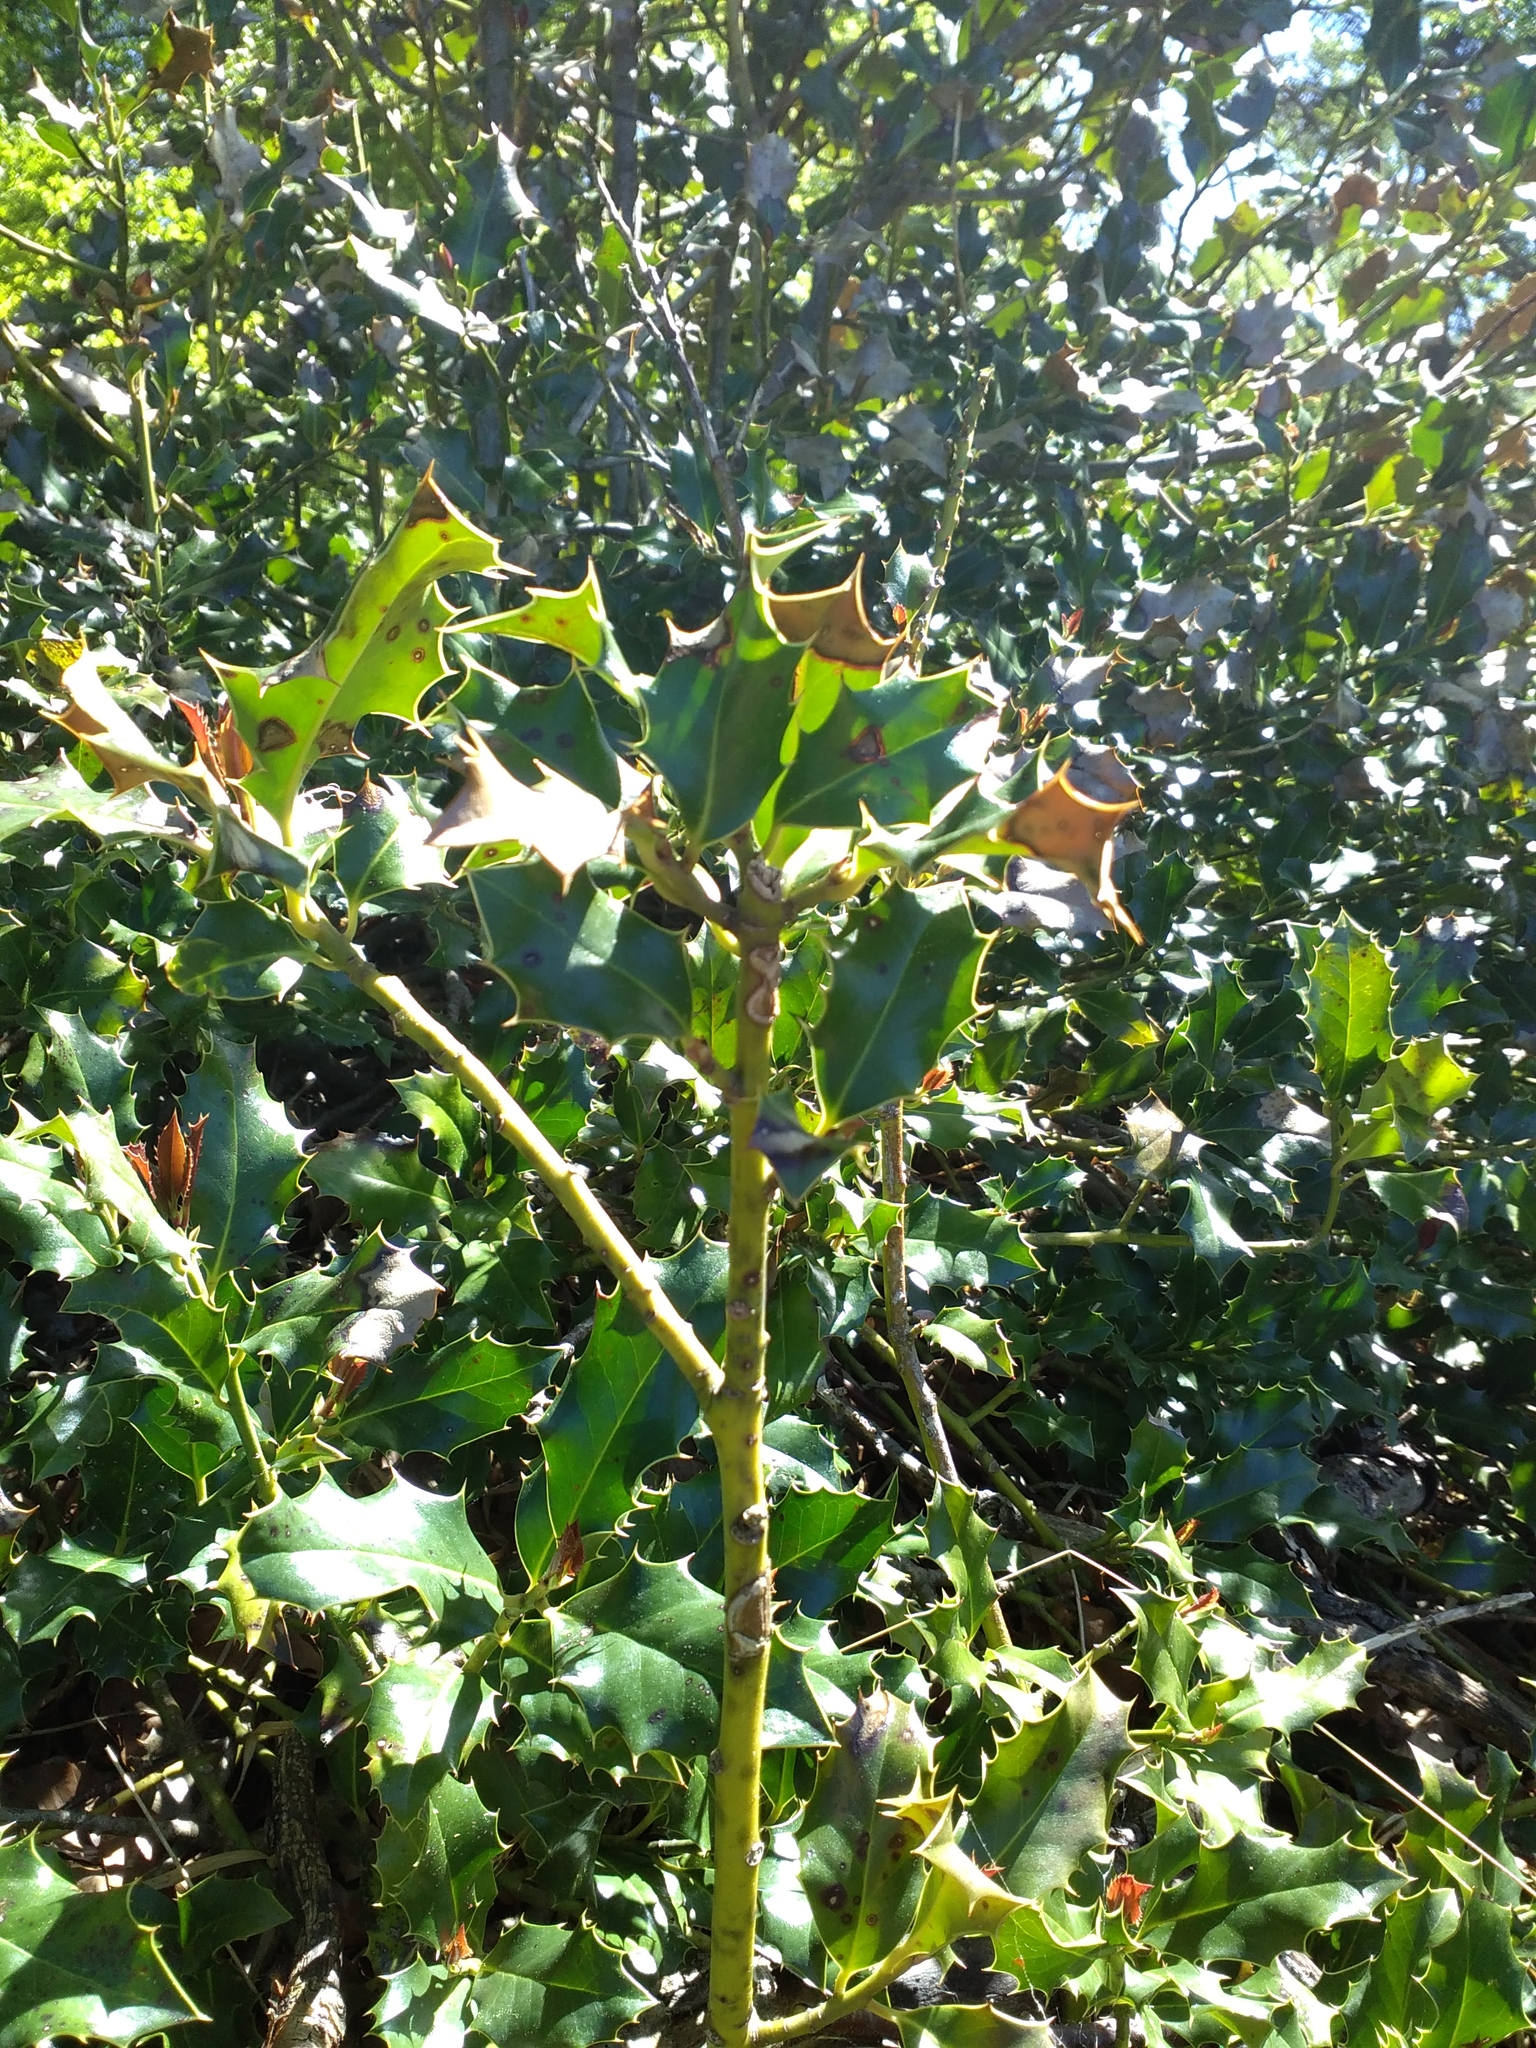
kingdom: Plantae
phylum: Tracheophyta
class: Magnoliopsida
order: Aquifoliales
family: Aquifoliaceae
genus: Ilex
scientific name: Ilex aquifolium
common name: English holly
